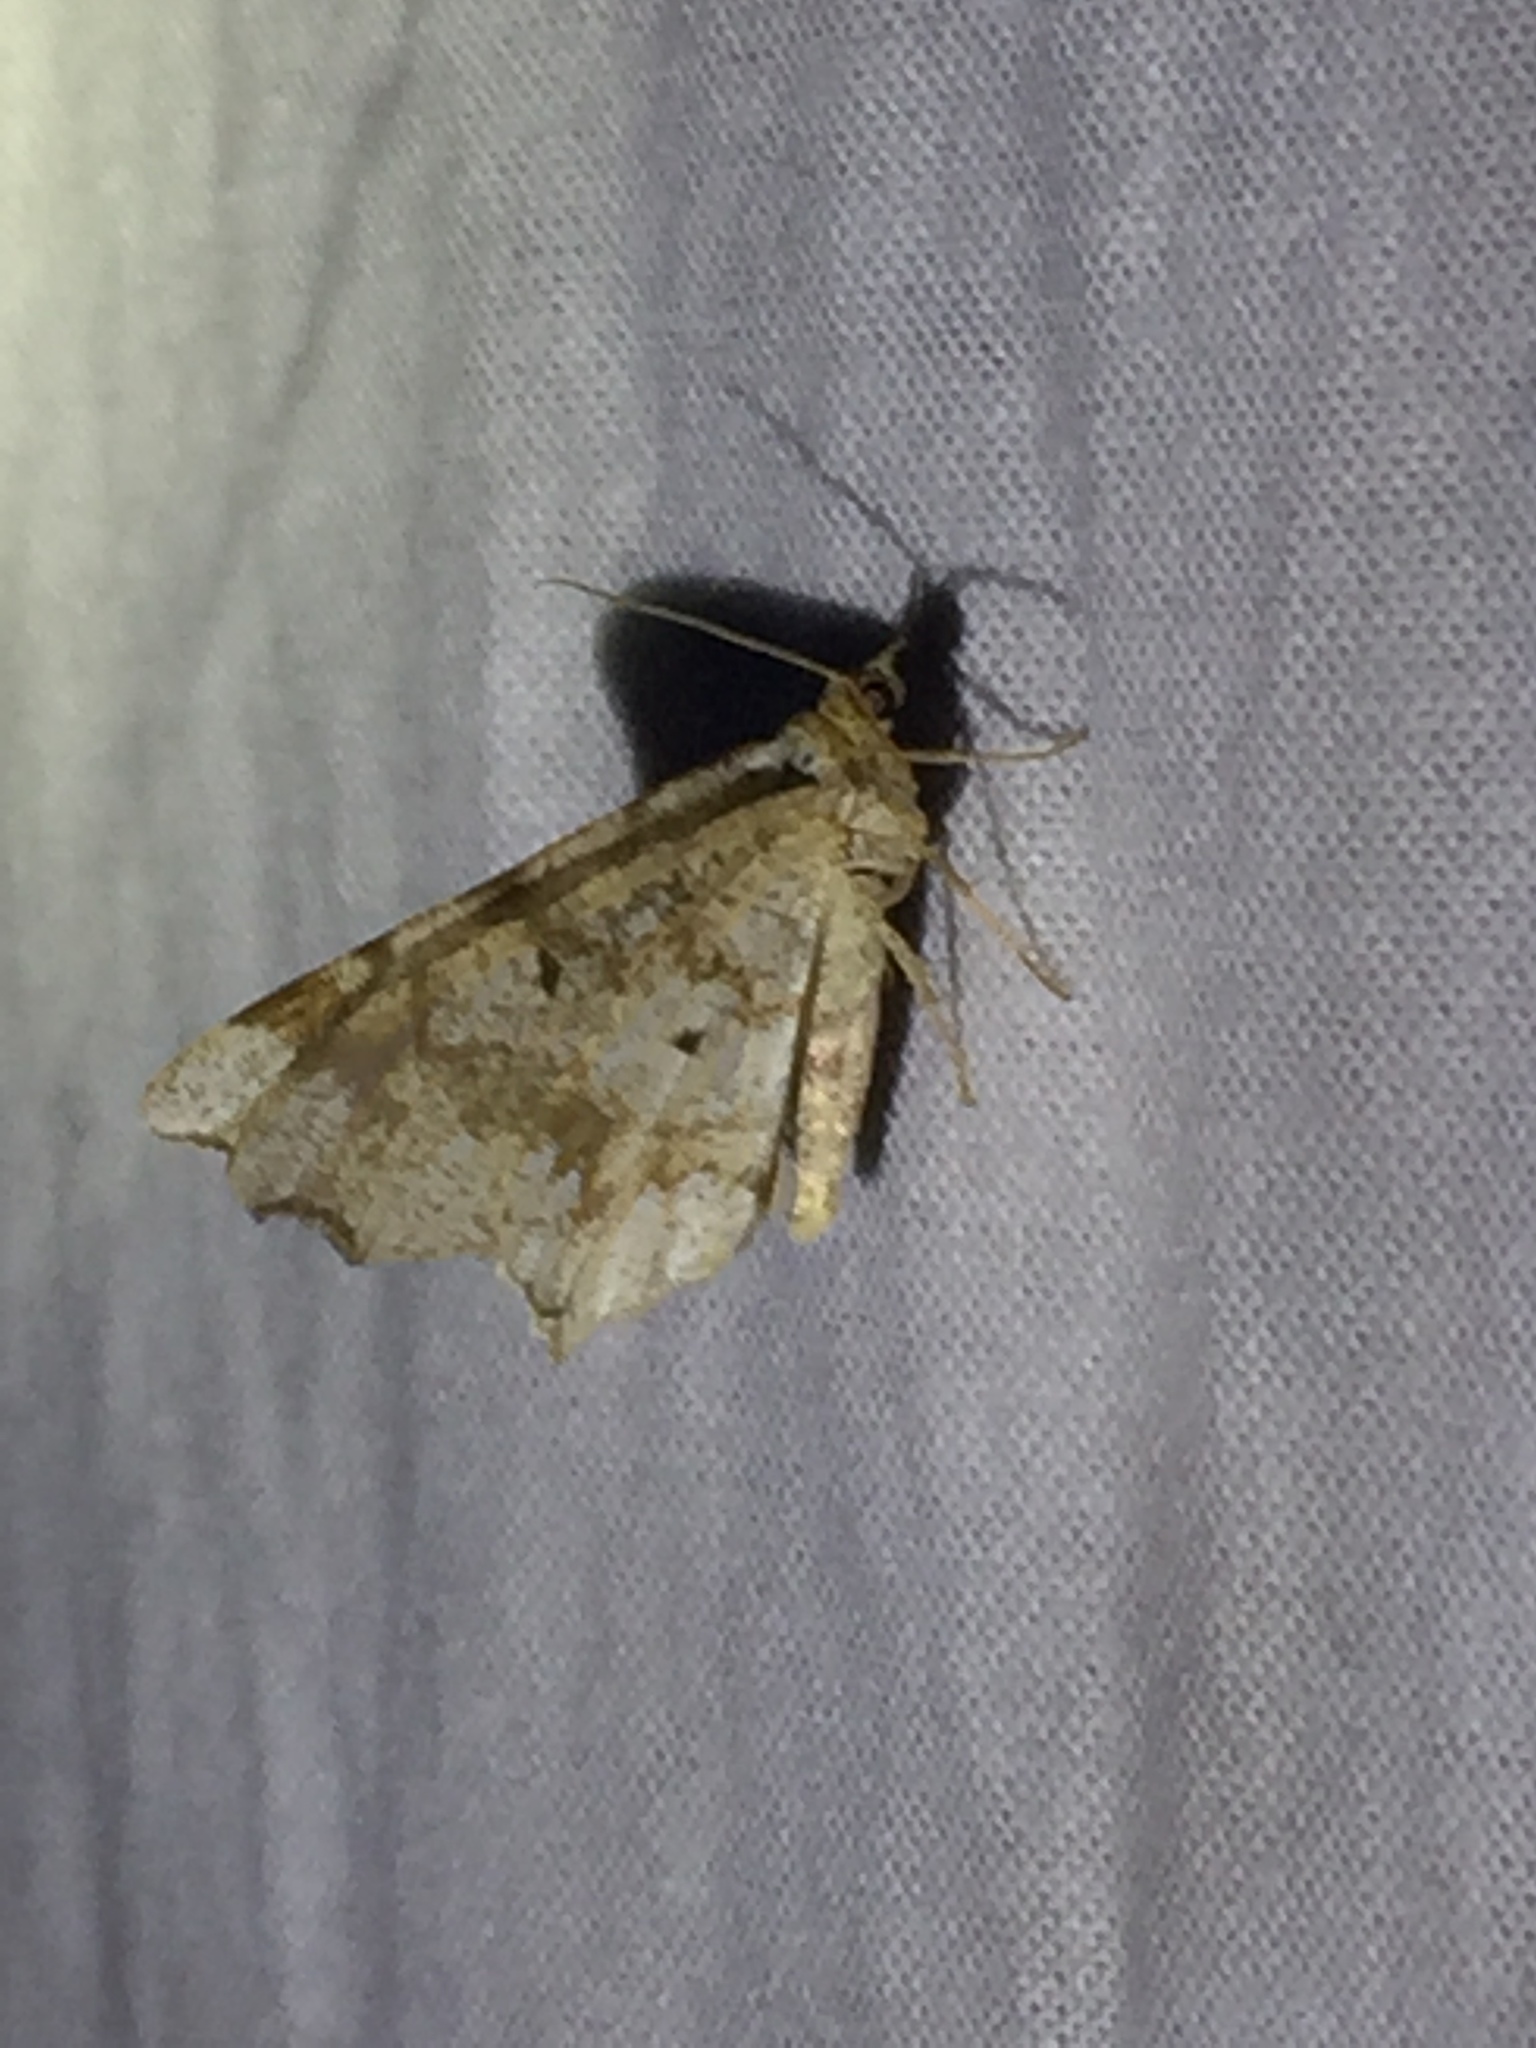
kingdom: Animalia
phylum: Arthropoda
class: Insecta
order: Lepidoptera
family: Geometridae
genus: Macaria
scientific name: Macaria notata
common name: Peacock moth
